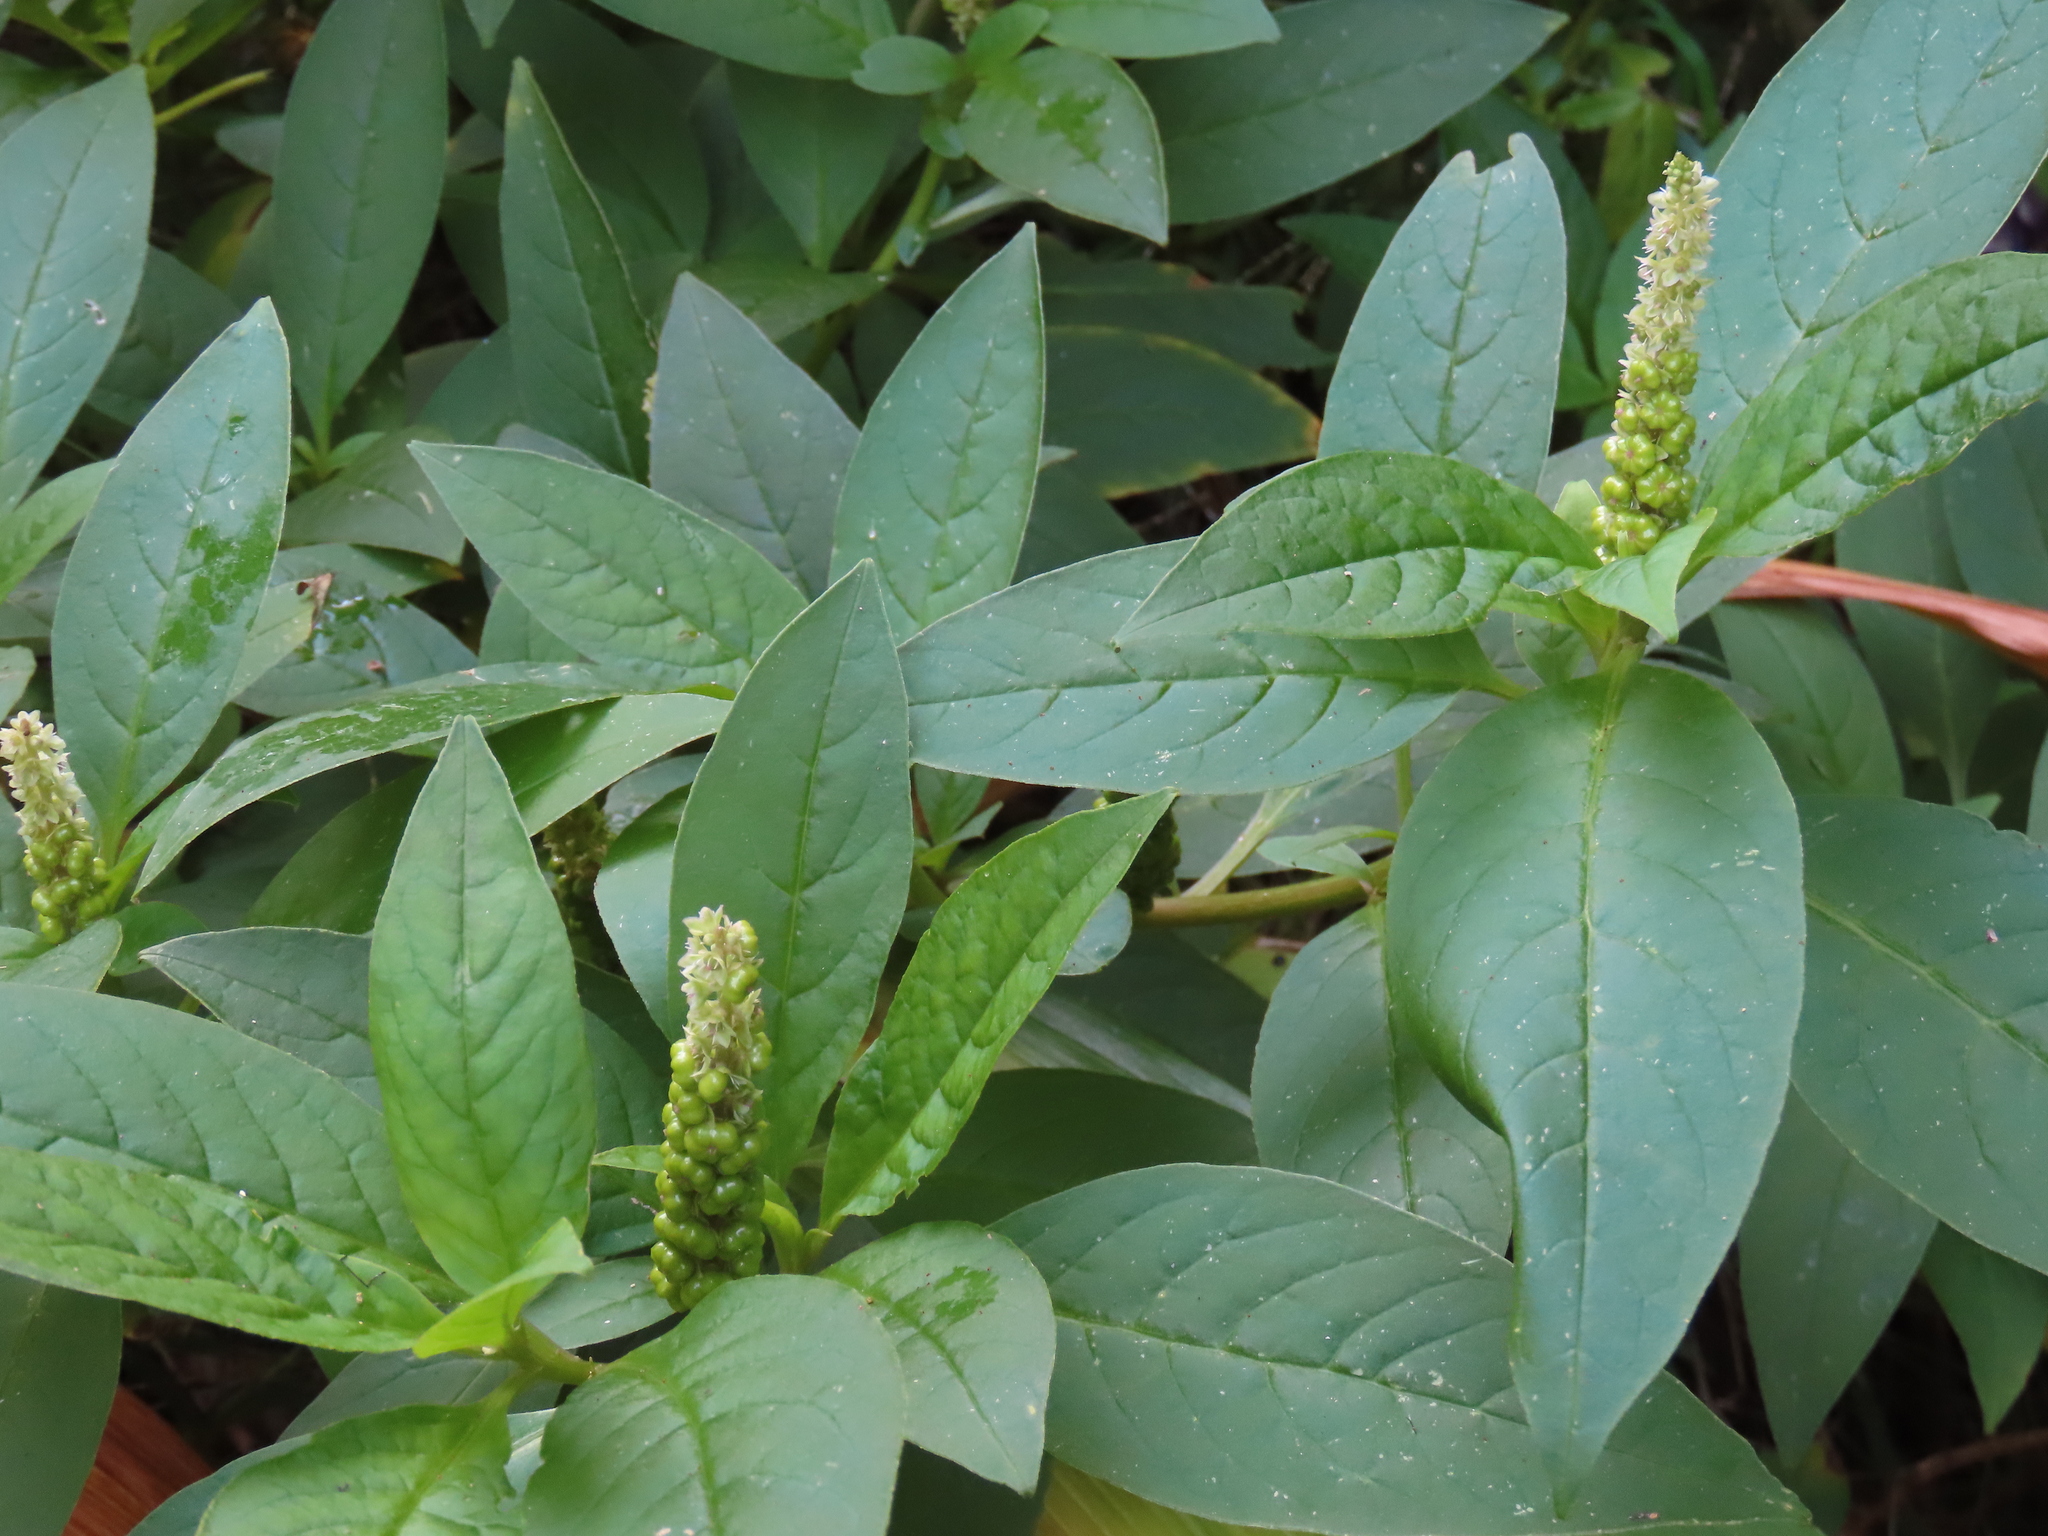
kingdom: Plantae
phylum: Tracheophyta
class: Magnoliopsida
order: Caryophyllales
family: Phytolaccaceae
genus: Phytolacca
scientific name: Phytolacca icosandra
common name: Button pokeweed
